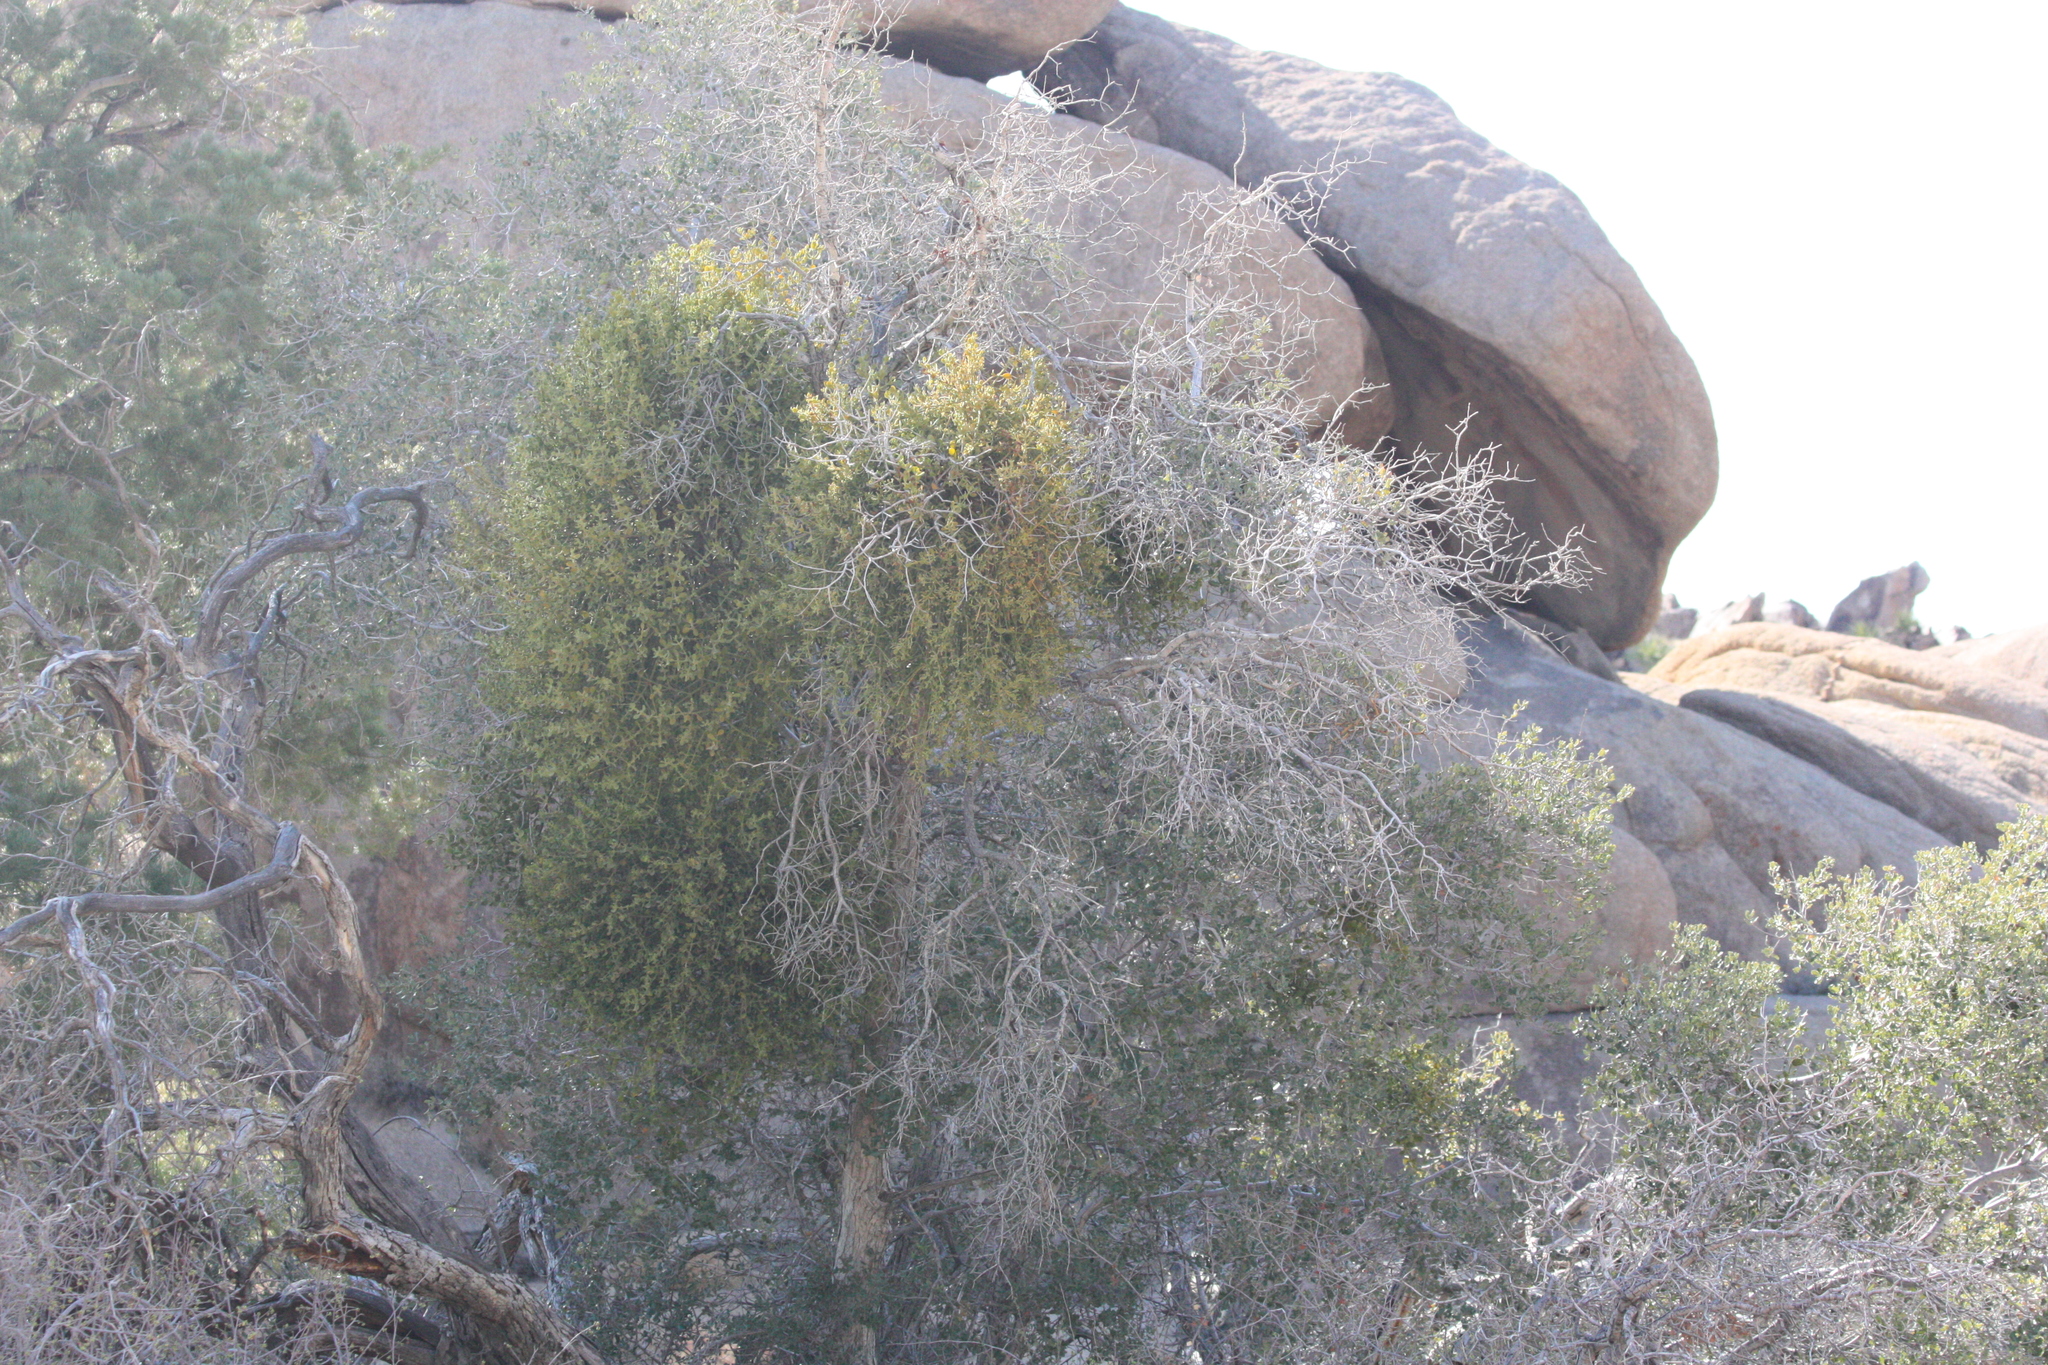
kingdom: Plantae
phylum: Tracheophyta
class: Magnoliopsida
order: Santalales
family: Viscaceae
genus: Phoradendron
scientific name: Phoradendron leucarpum
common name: Pacific mistletoe
